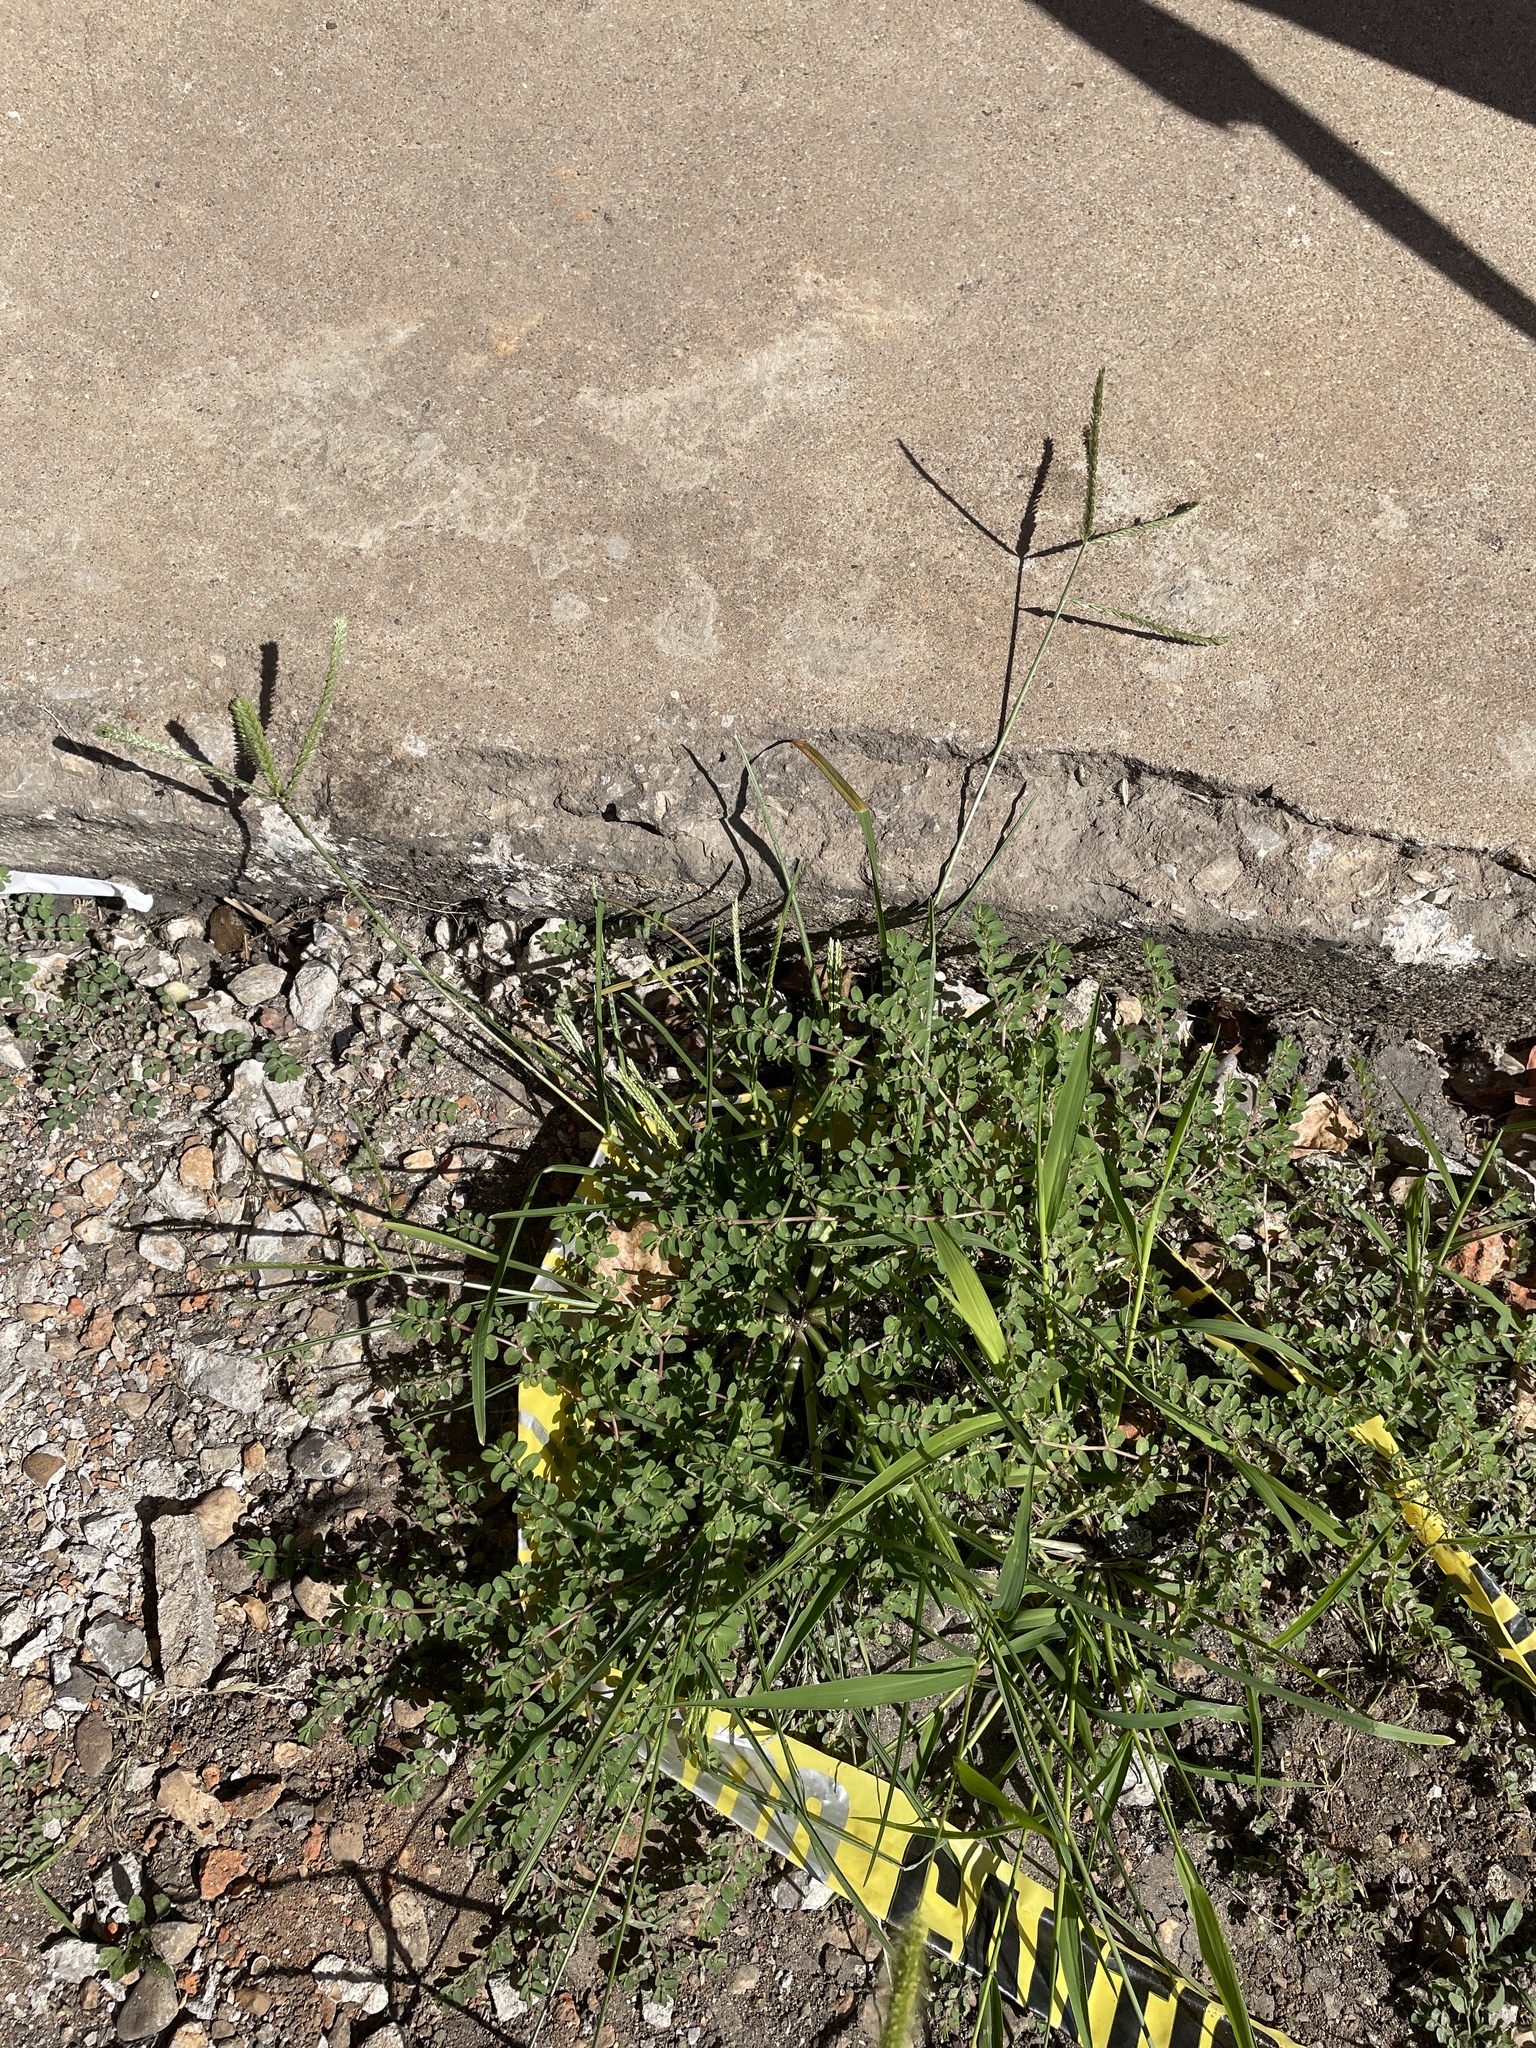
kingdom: Plantae
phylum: Tracheophyta
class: Liliopsida
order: Poales
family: Poaceae
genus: Eleusine
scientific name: Eleusine indica
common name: Yard-grass
